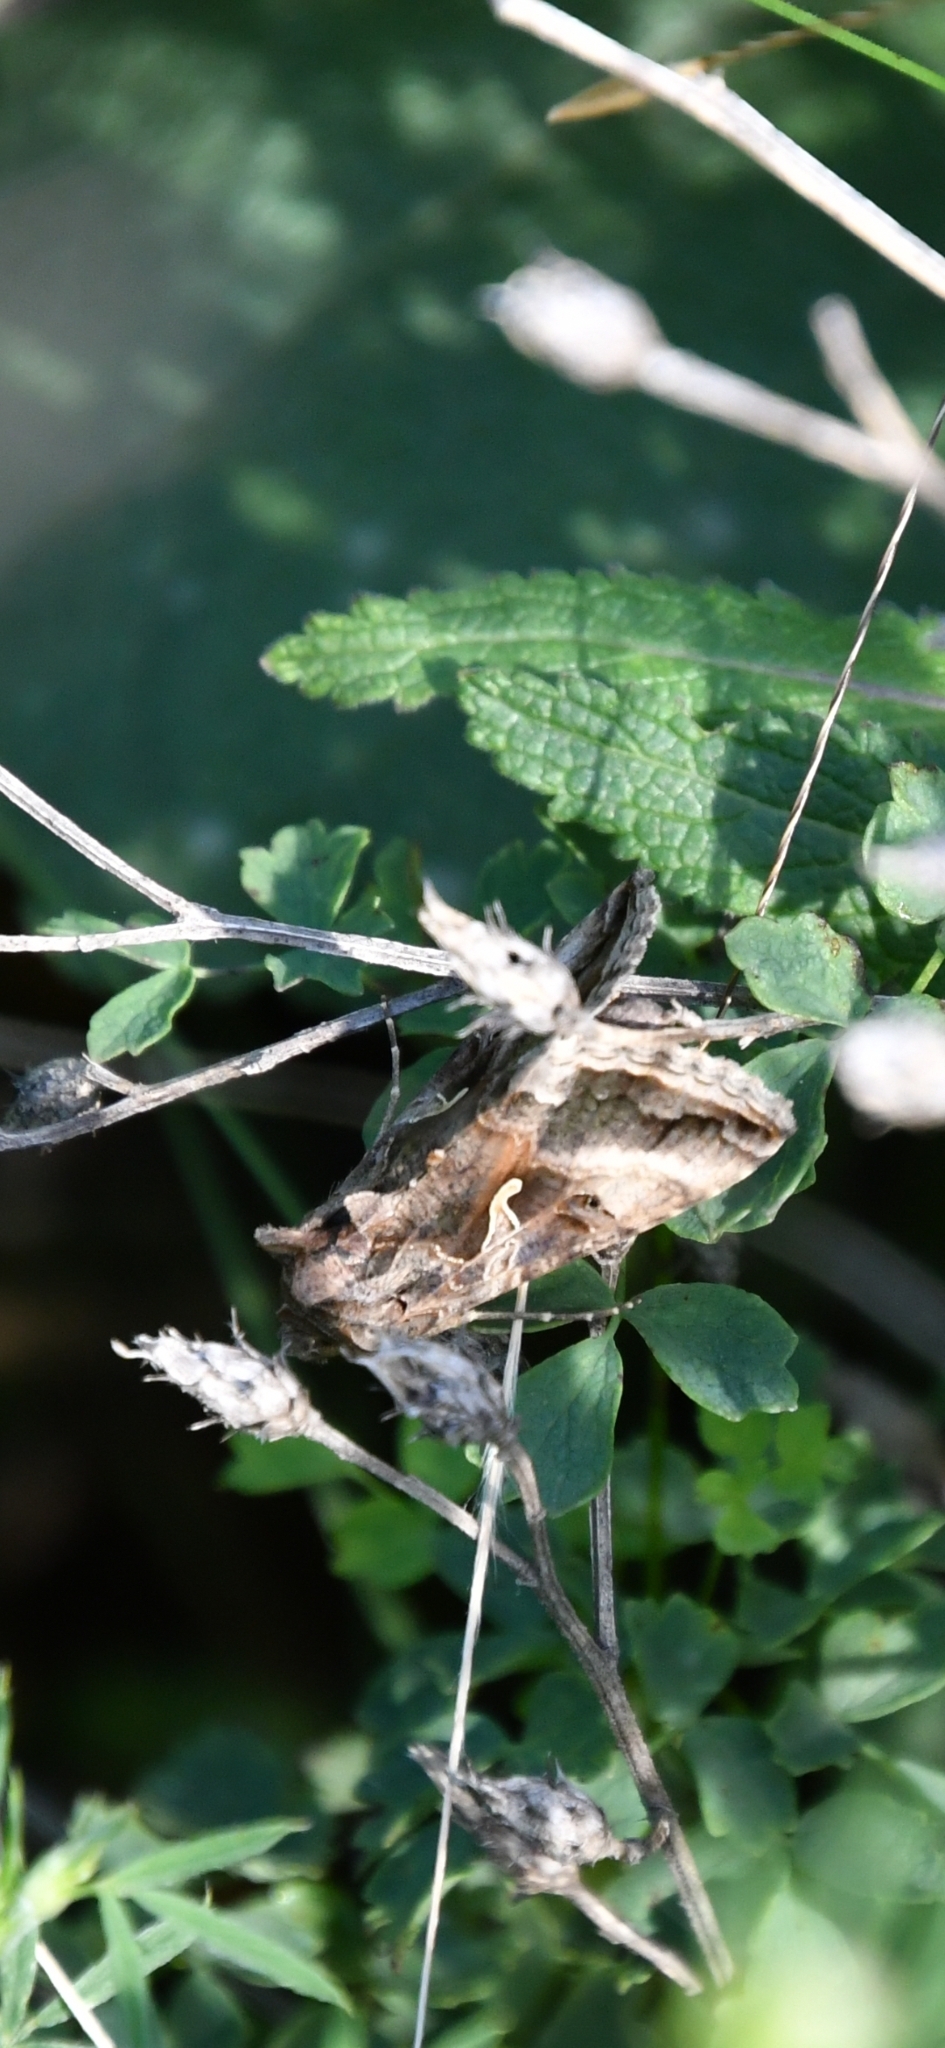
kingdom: Animalia
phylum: Arthropoda
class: Insecta
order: Lepidoptera
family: Noctuidae
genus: Autographa
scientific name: Autographa gamma
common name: Silver y
